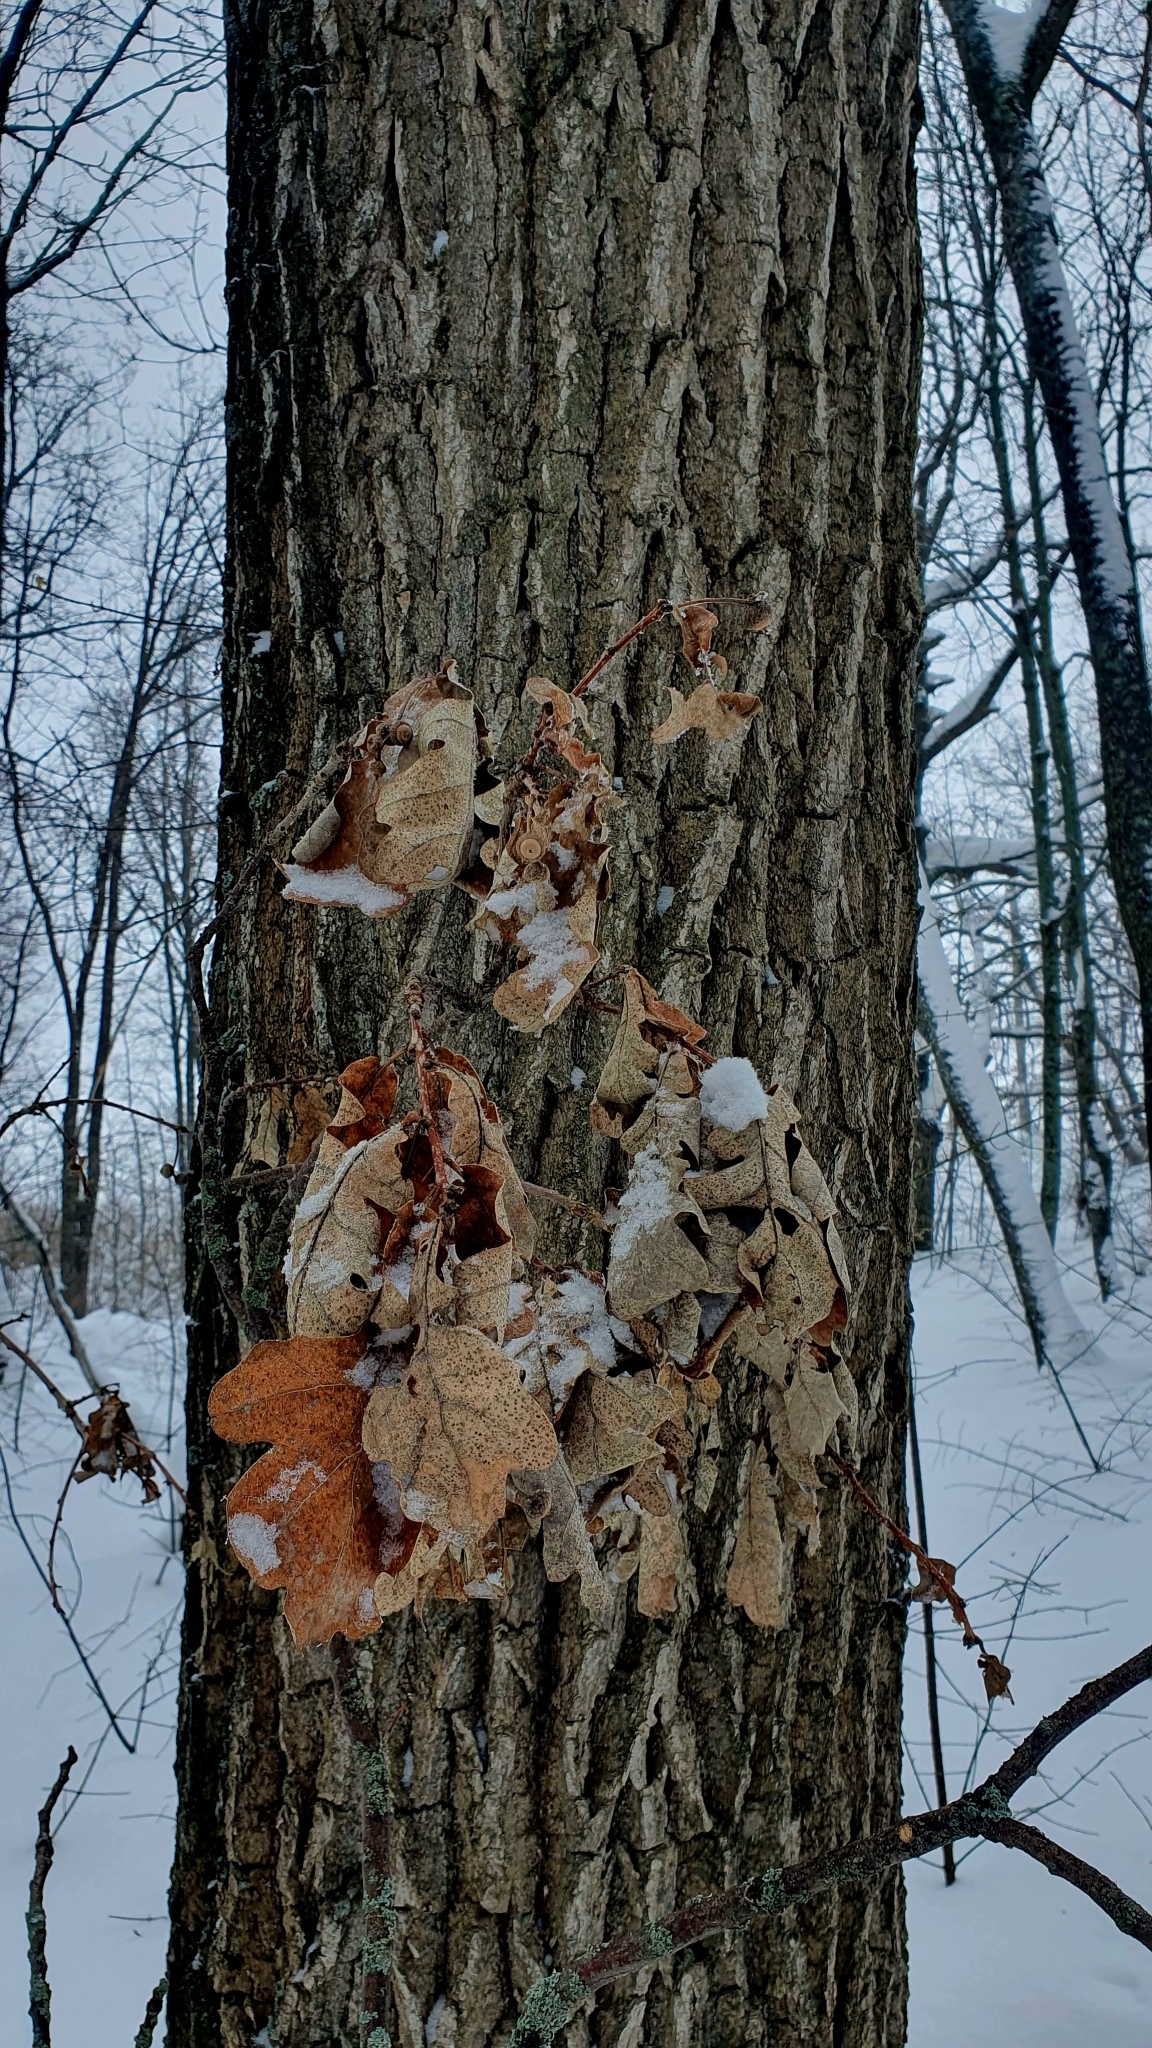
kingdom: Plantae
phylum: Tracheophyta
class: Magnoliopsida
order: Fagales
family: Fagaceae
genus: Quercus
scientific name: Quercus robur
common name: Pedunculate oak
